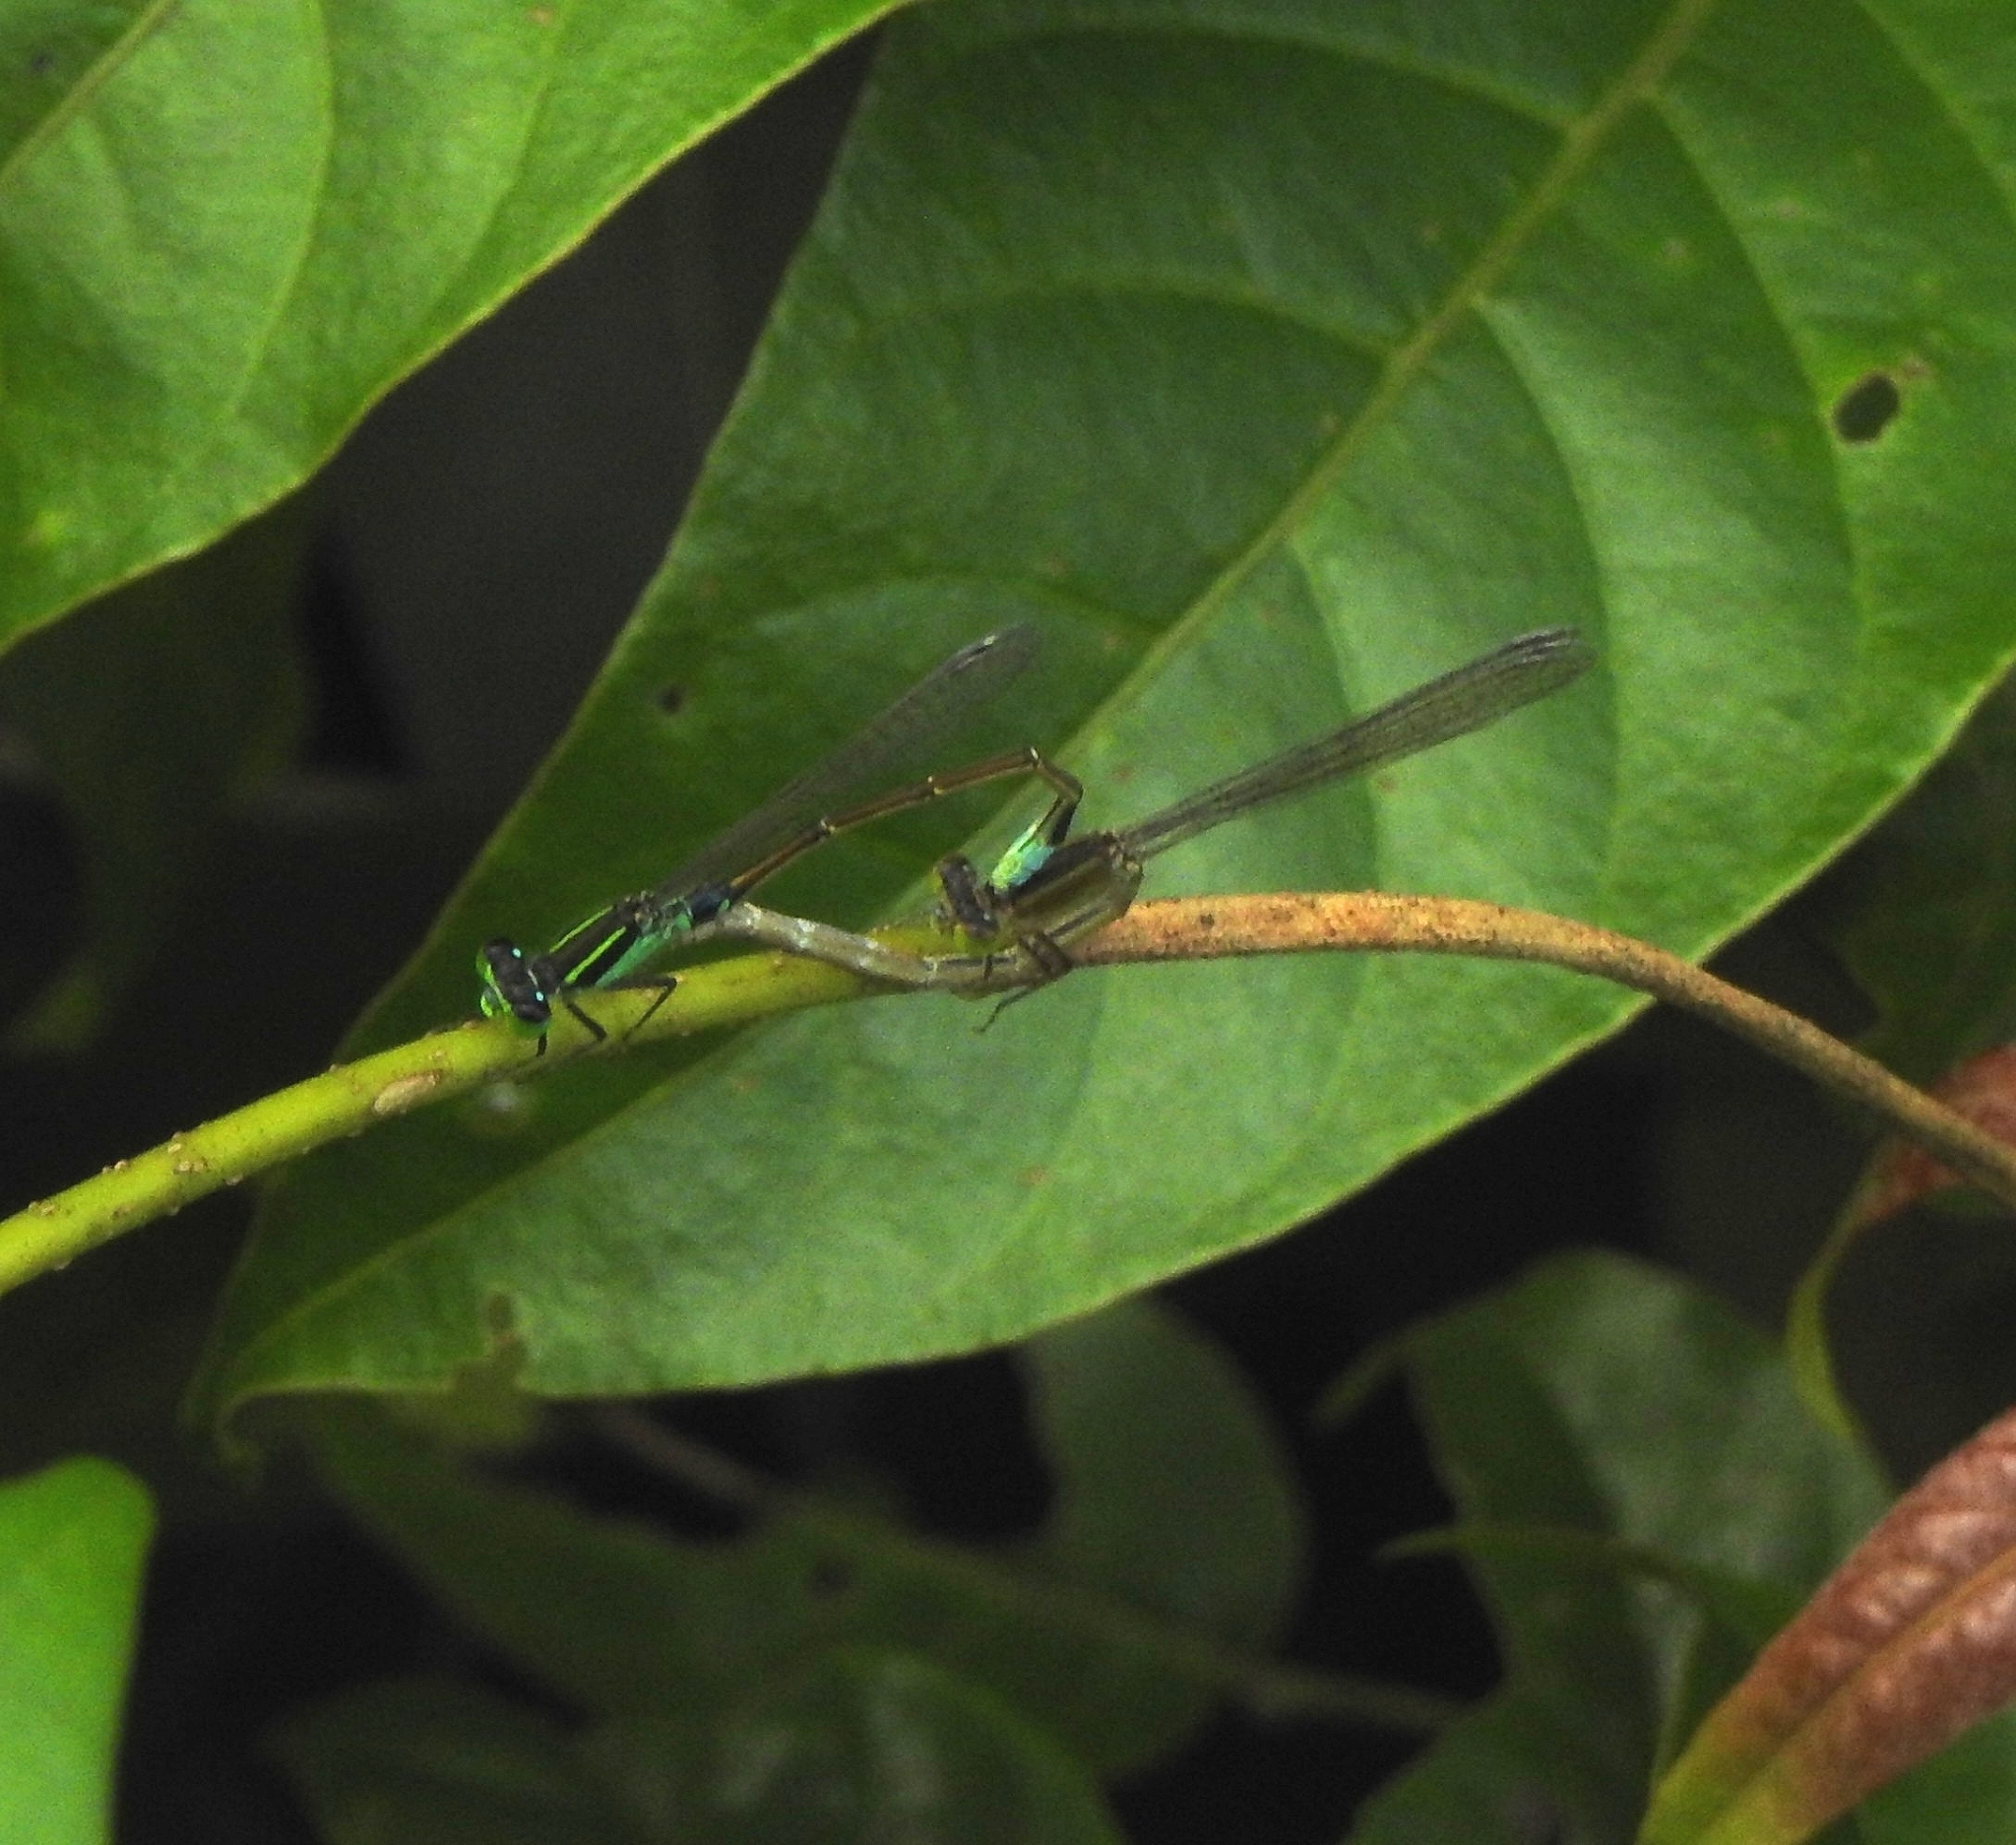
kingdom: Animalia
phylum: Arthropoda
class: Insecta
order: Odonata
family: Coenagrionidae
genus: Ischnura
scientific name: Ischnura senegalensis
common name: Tropical bluetail
